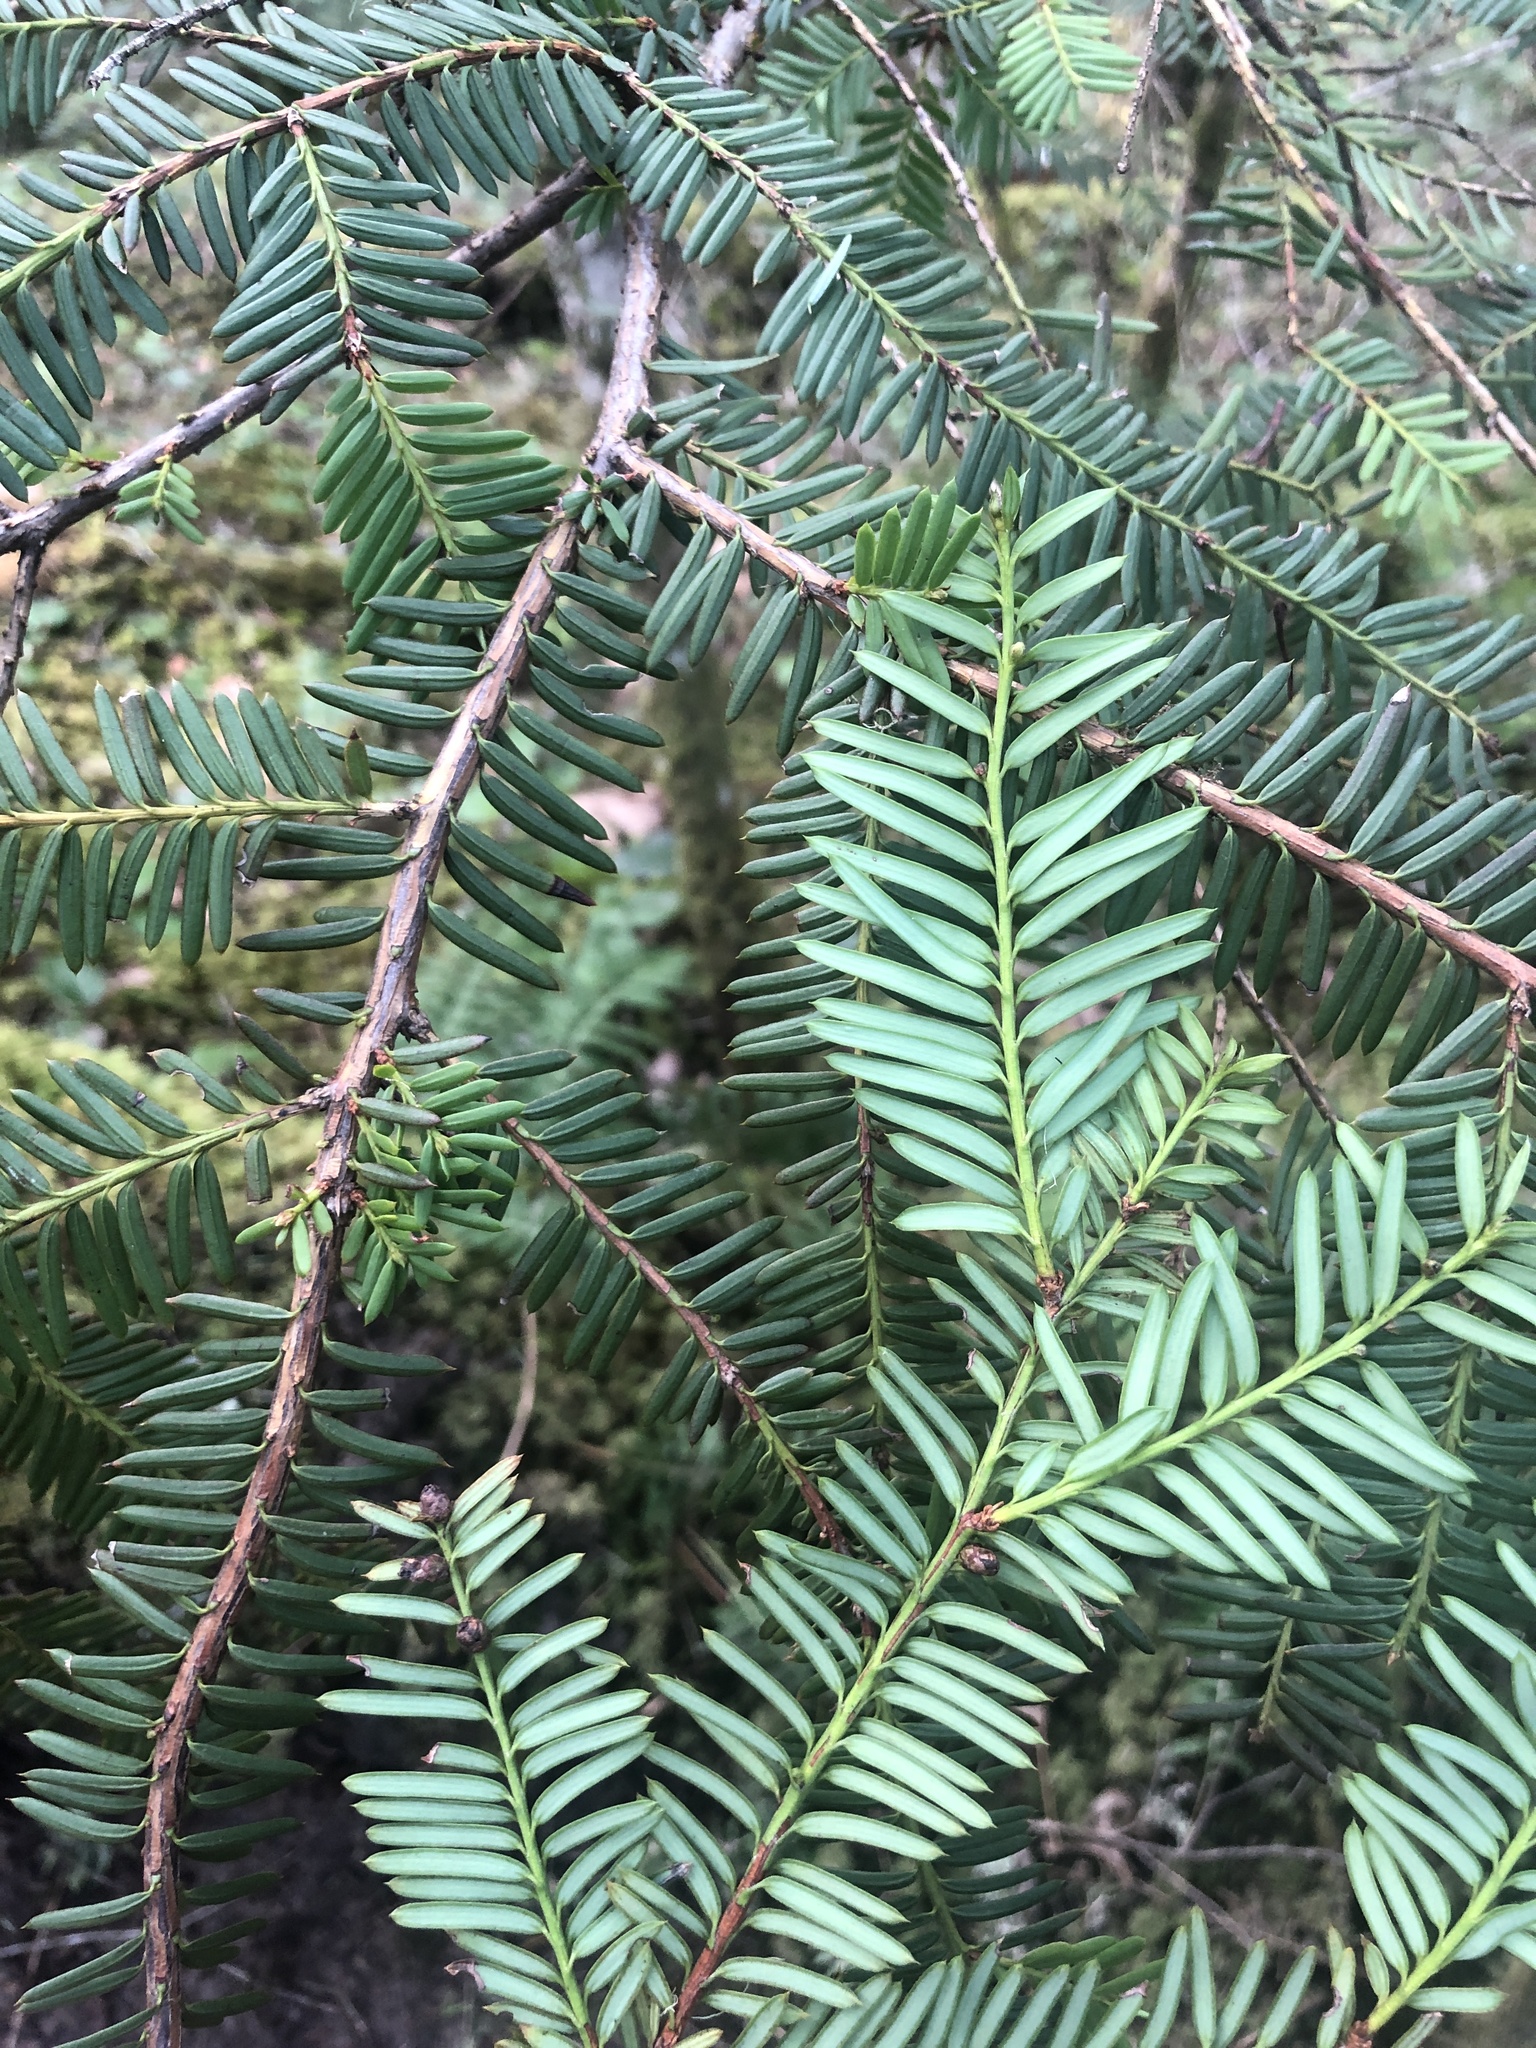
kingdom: Plantae
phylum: Tracheophyta
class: Pinopsida
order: Pinales
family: Taxaceae
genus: Taxus
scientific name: Taxus brevifolia
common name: Pacific yew
